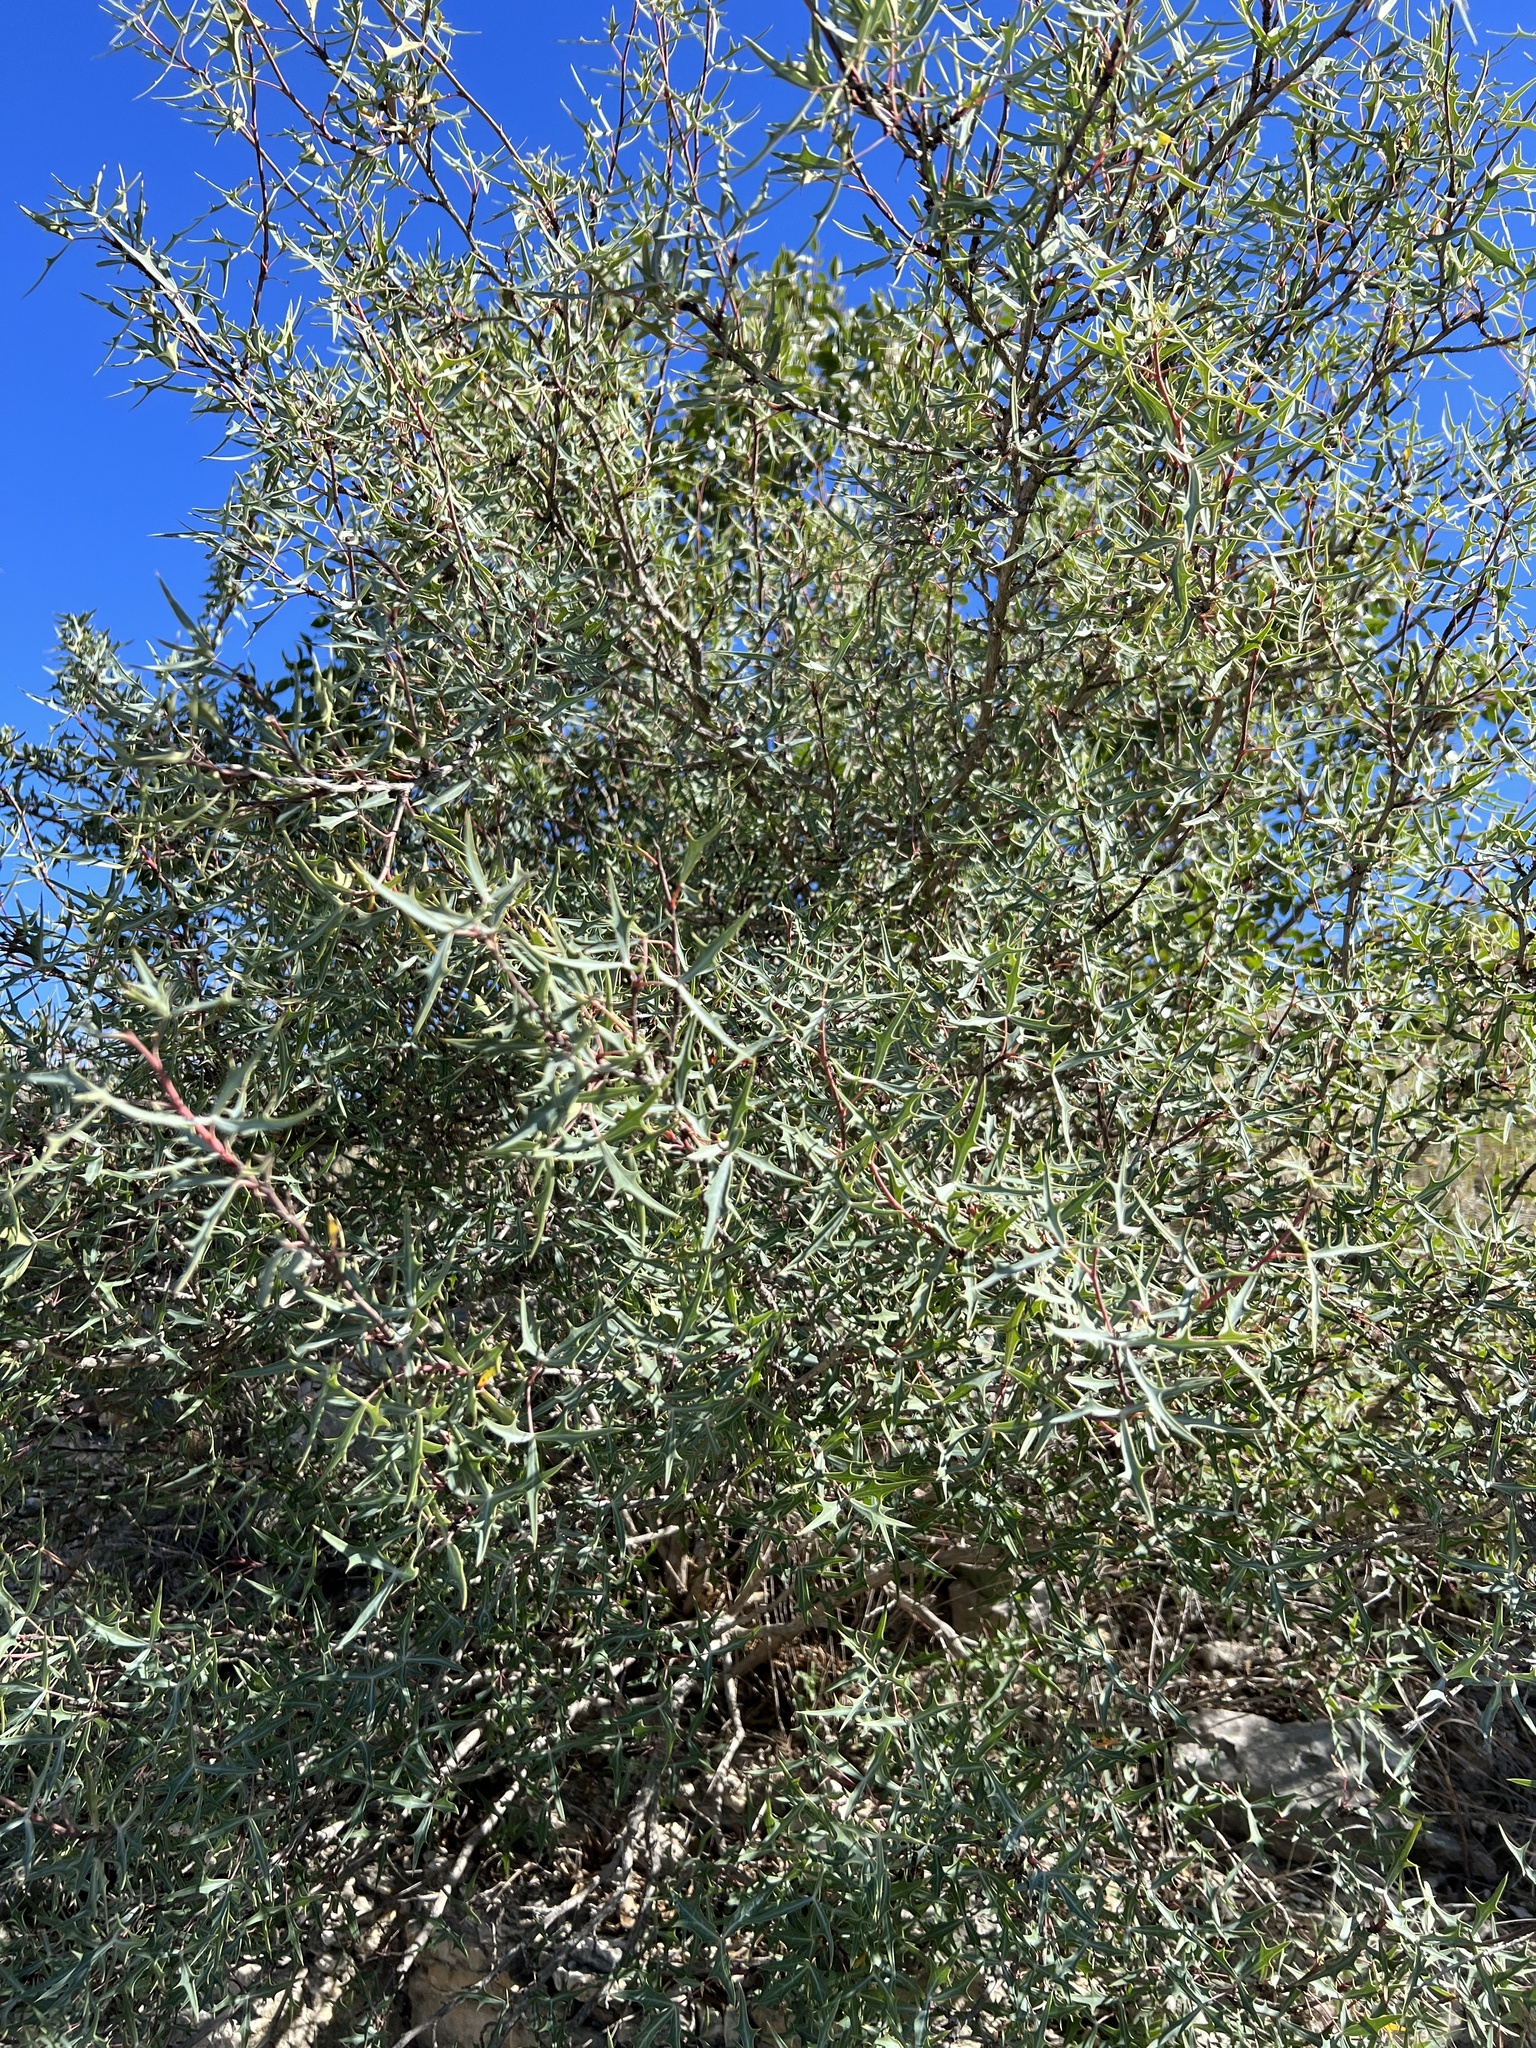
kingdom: Plantae
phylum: Tracheophyta
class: Magnoliopsida
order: Ranunculales
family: Berberidaceae
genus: Alloberberis
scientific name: Alloberberis trifoliolata
